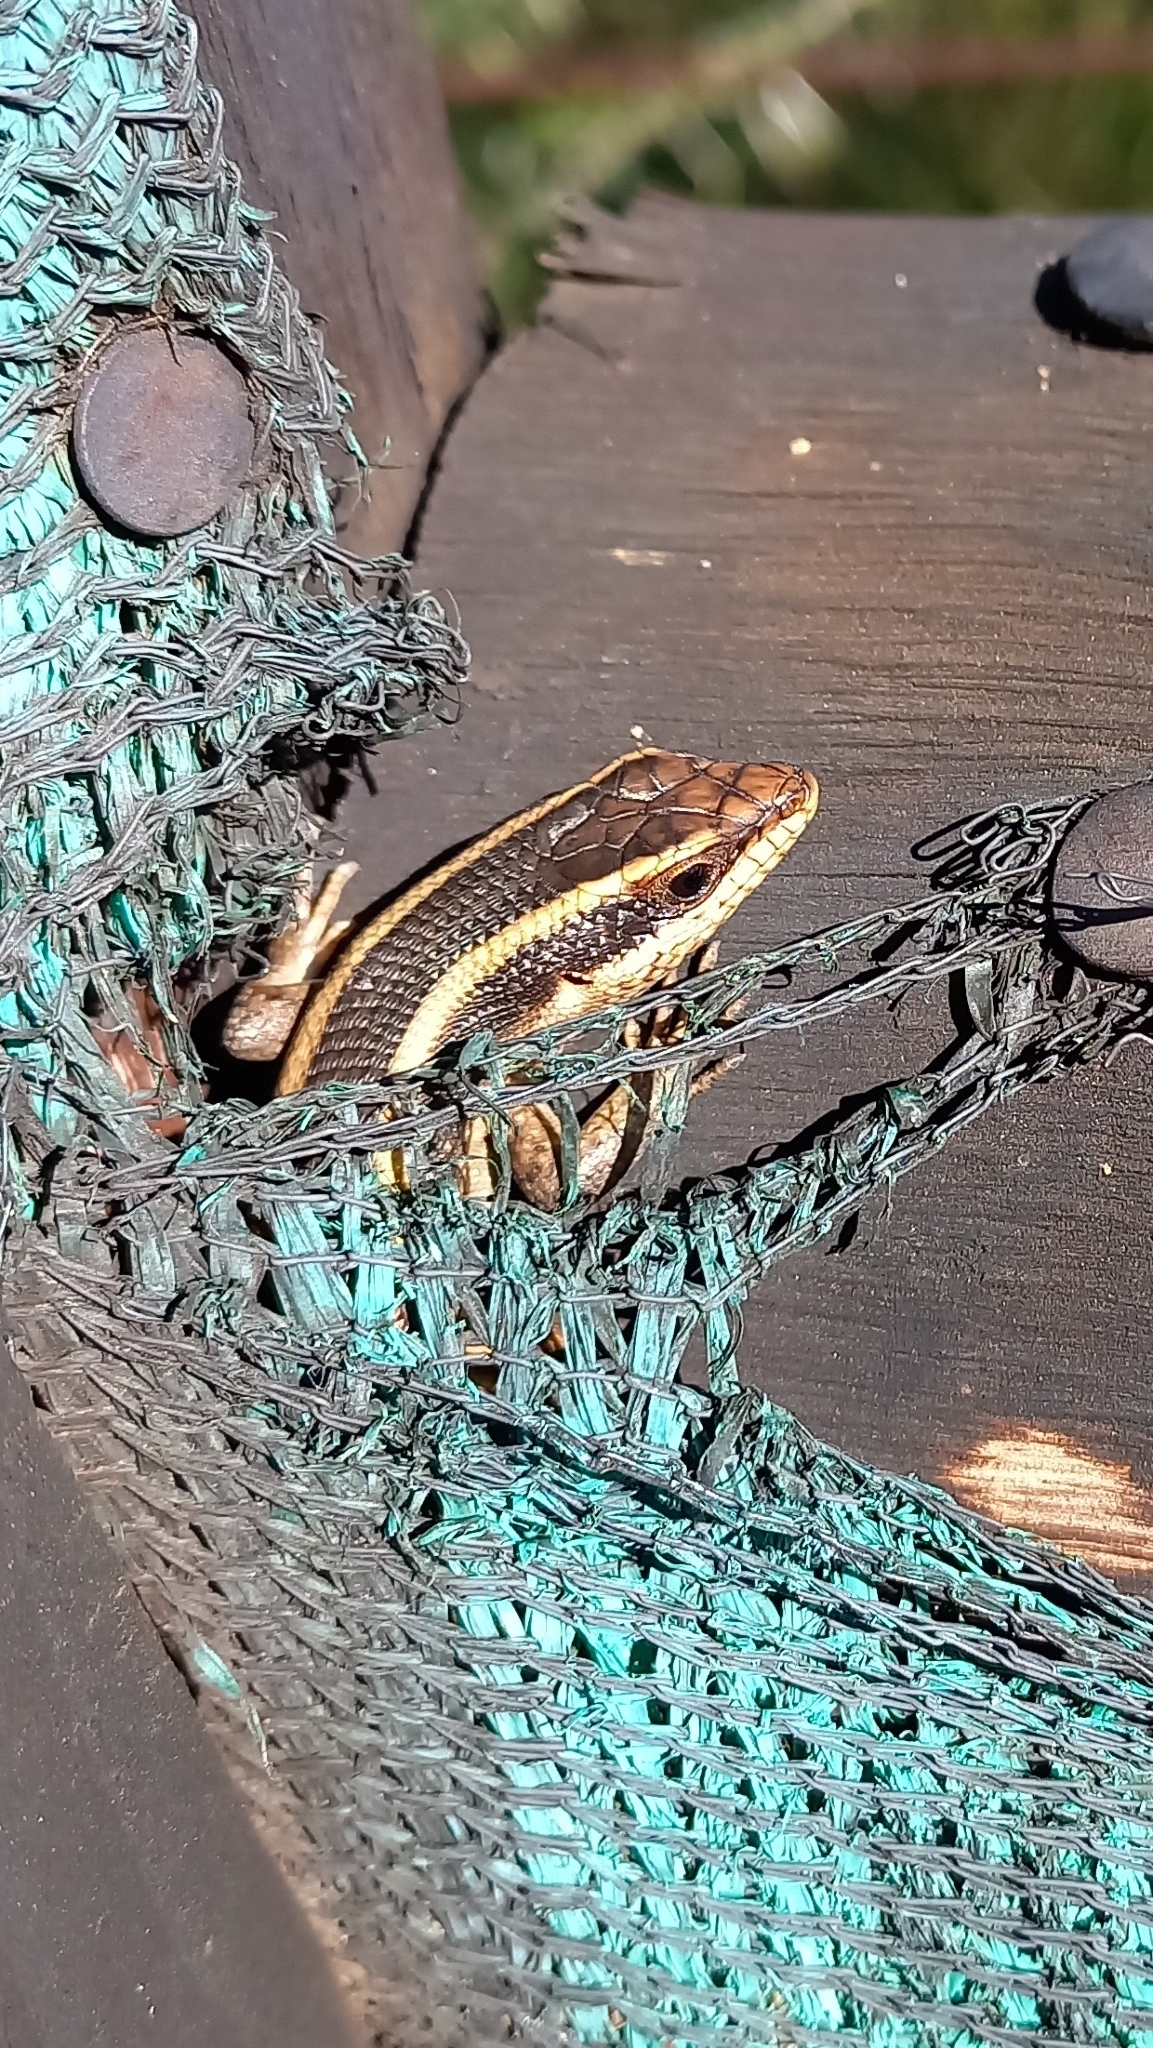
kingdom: Animalia
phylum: Chordata
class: Squamata
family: Scincidae
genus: Trachylepis
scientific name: Trachylepis striata
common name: African striped mabuya
